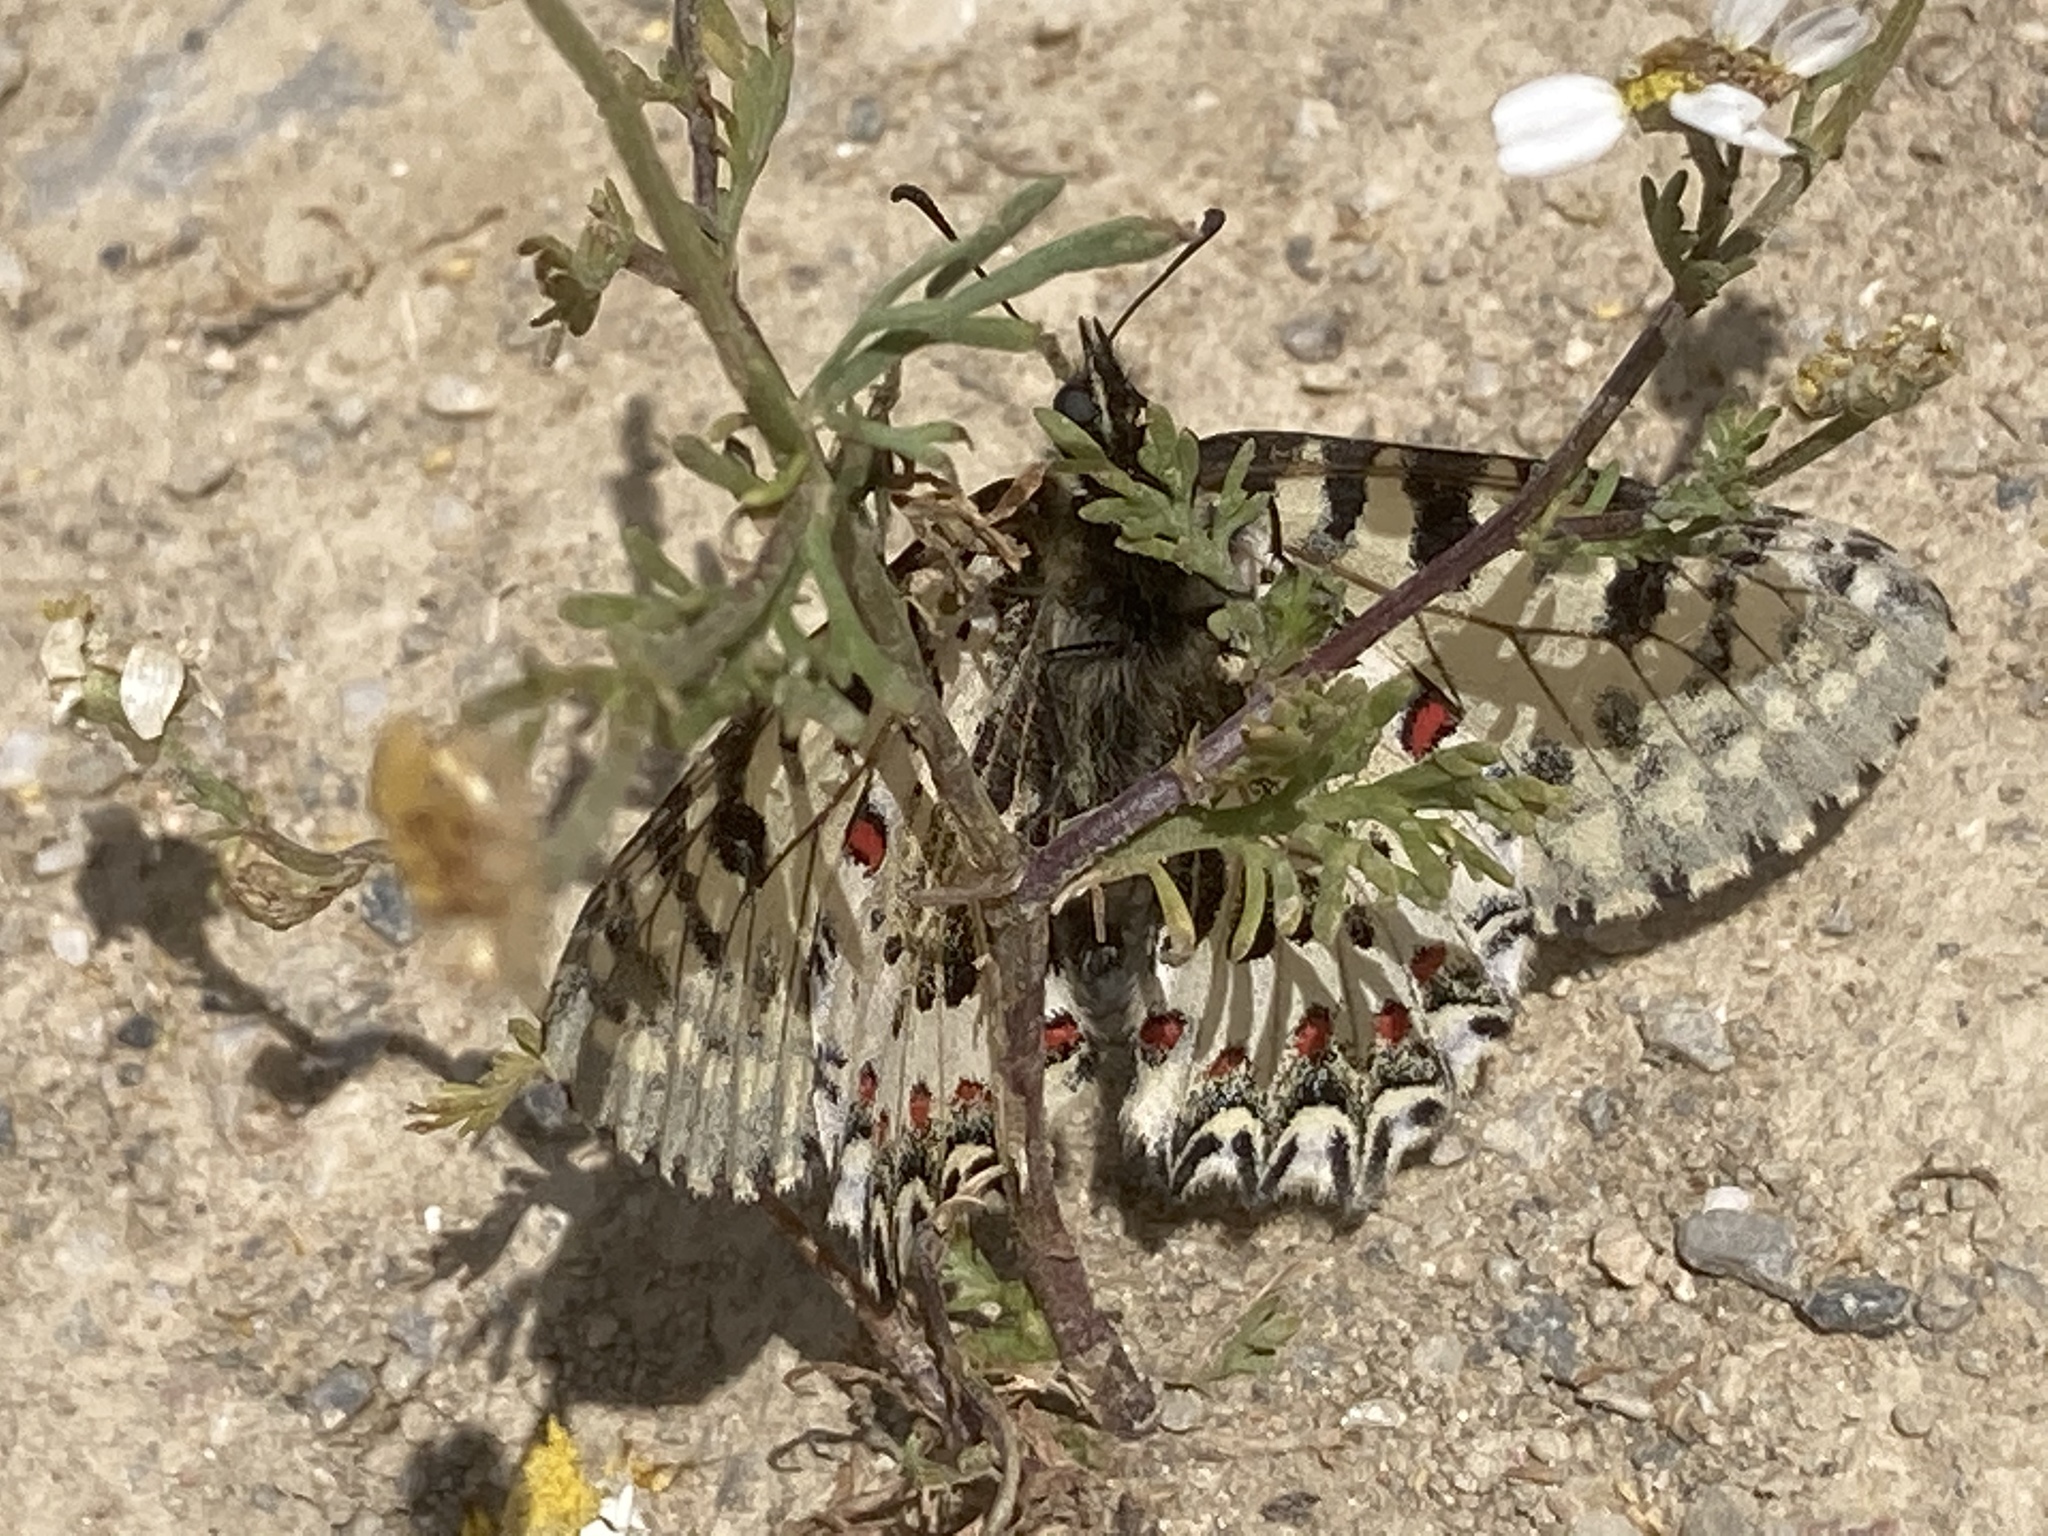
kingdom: Animalia
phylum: Arthropoda
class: Insecta
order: Lepidoptera
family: Papilionidae
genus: Zerynthia
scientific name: Zerynthia cretica
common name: Cretan festoon
